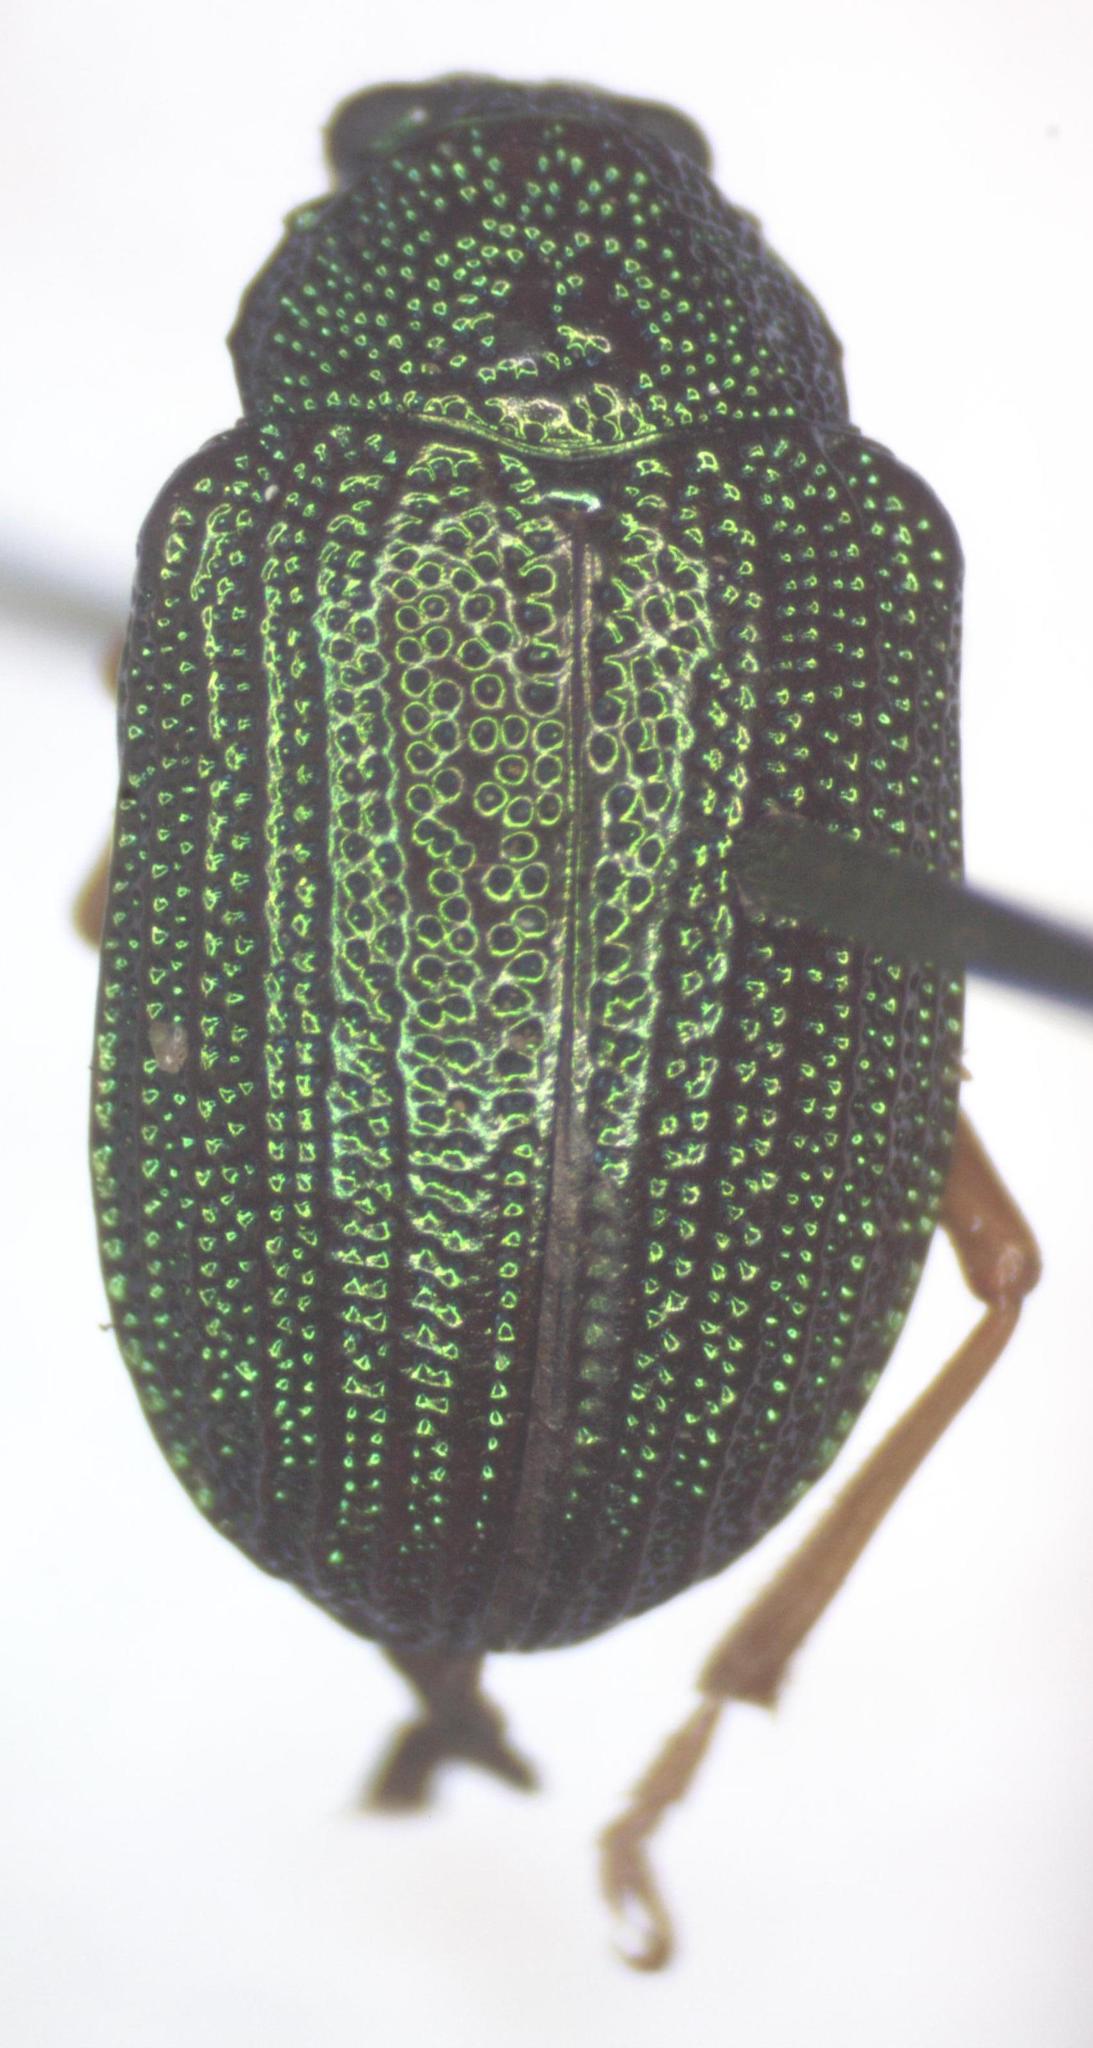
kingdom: Animalia
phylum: Arthropoda
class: Insecta
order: Coleoptera
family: Chrysomelidae
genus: Colaspis
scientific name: Colaspis
